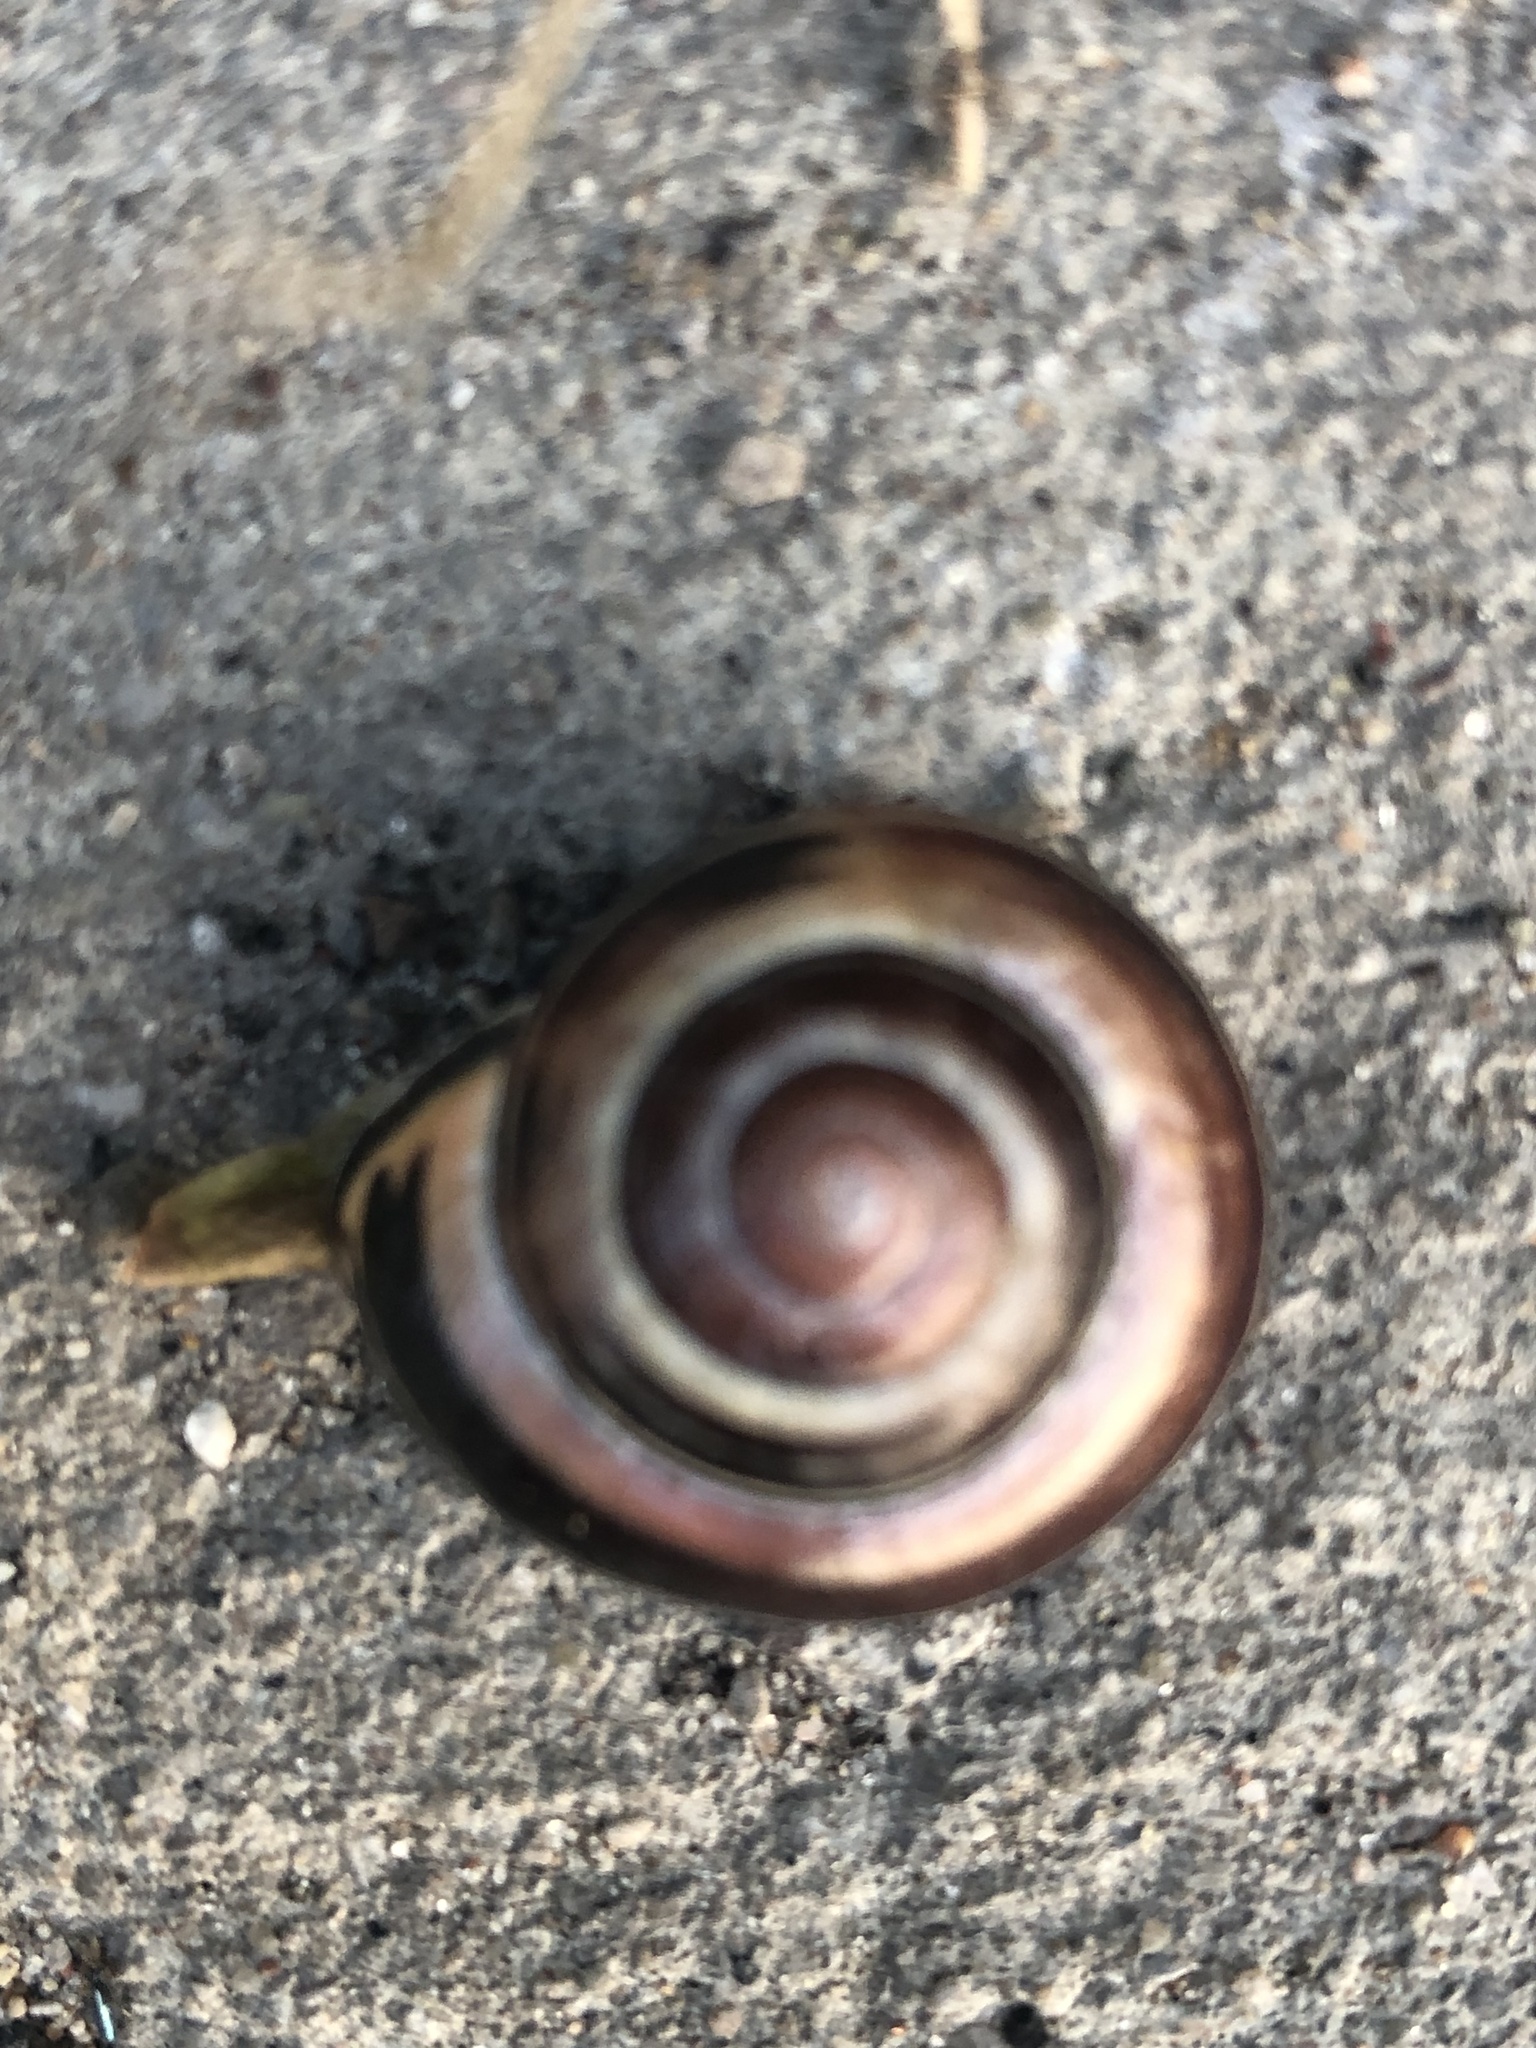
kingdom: Animalia
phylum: Mollusca
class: Gastropoda
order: Stylommatophora
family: Helicidae
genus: Cepaea
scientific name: Cepaea nemoralis
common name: Grovesnail
